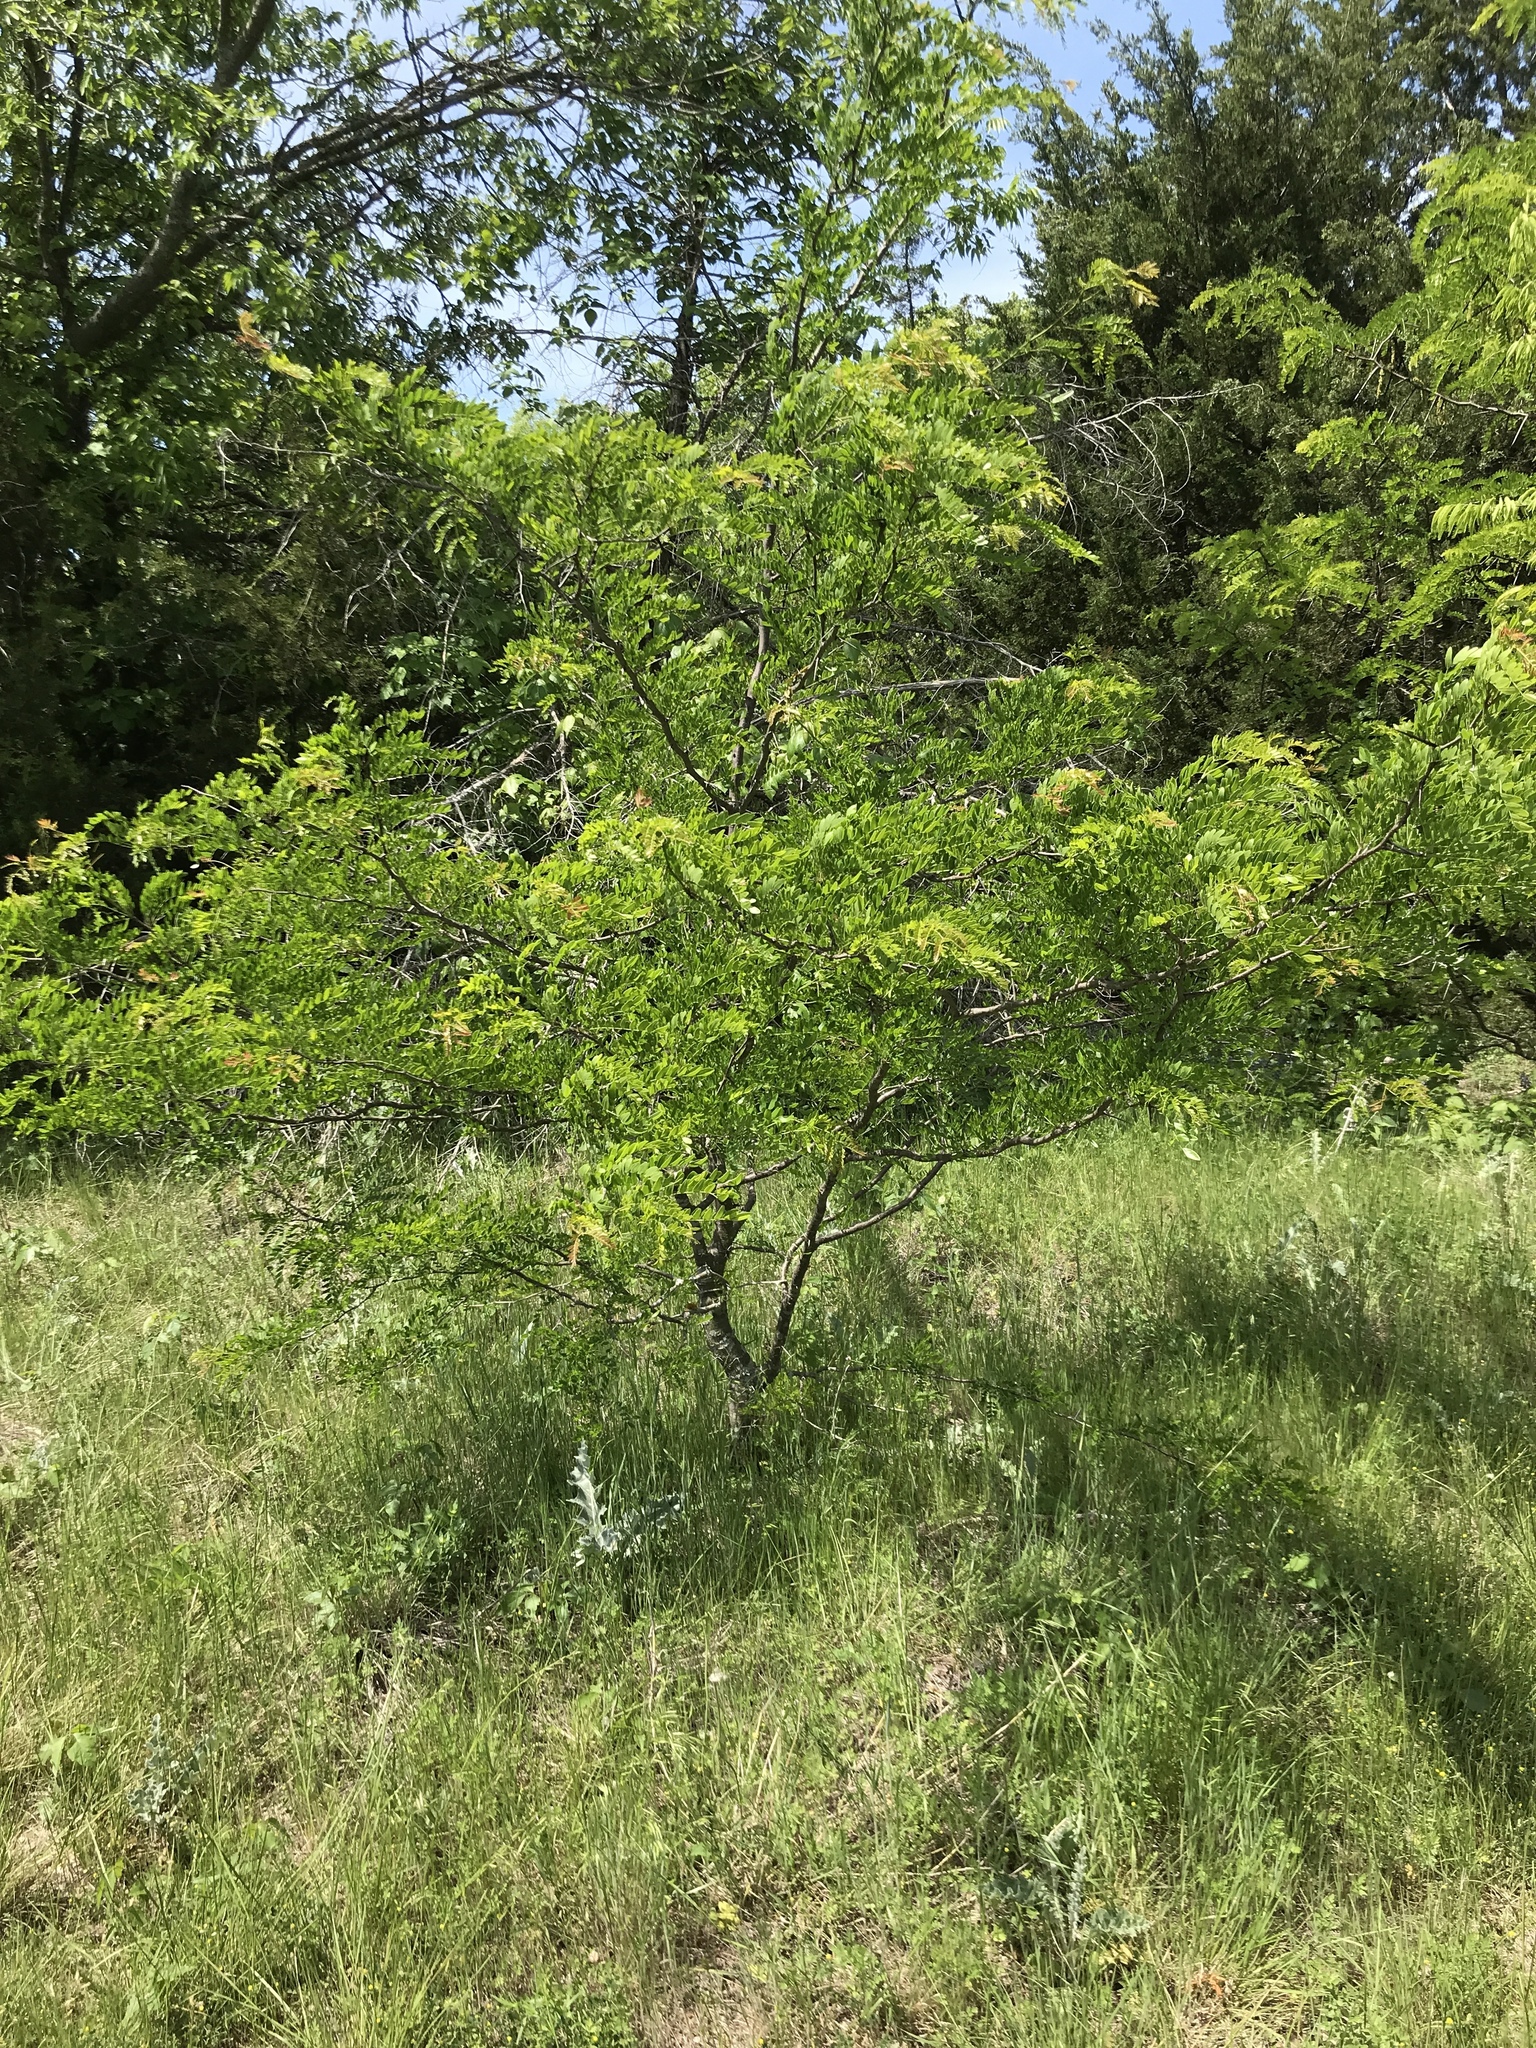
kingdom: Plantae
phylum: Tracheophyta
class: Magnoliopsida
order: Fabales
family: Fabaceae
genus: Gleditsia
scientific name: Gleditsia triacanthos
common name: Common honeylocust
